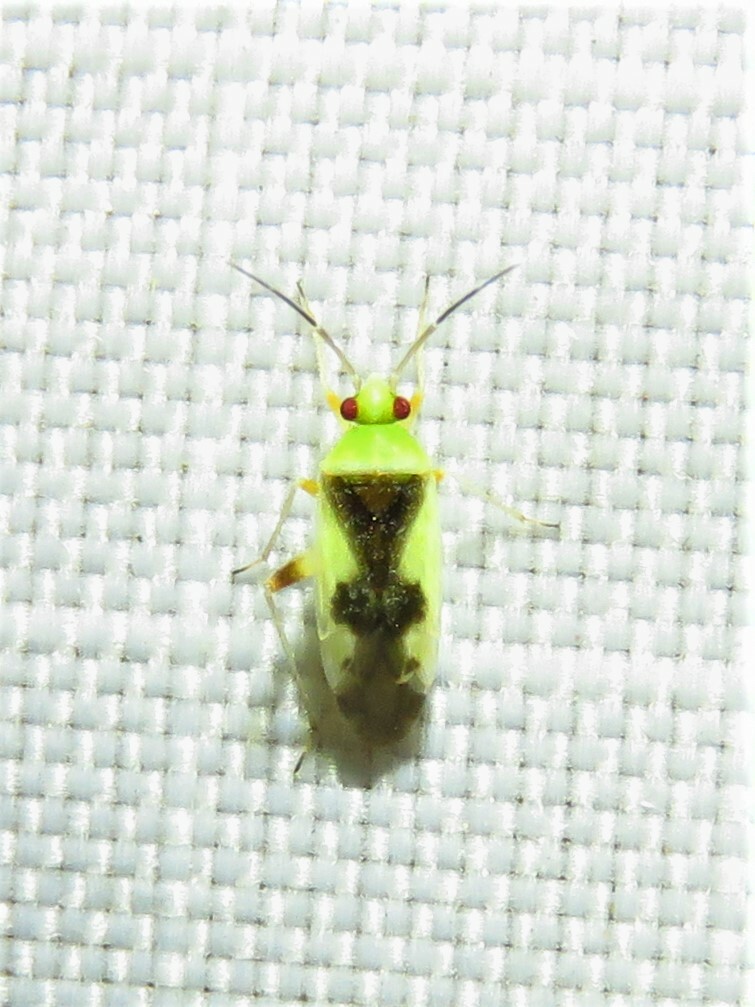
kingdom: Animalia
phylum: Arthropoda
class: Insecta
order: Hemiptera
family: Miridae
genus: Reuteroscopus
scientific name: Reuteroscopus femoralis
